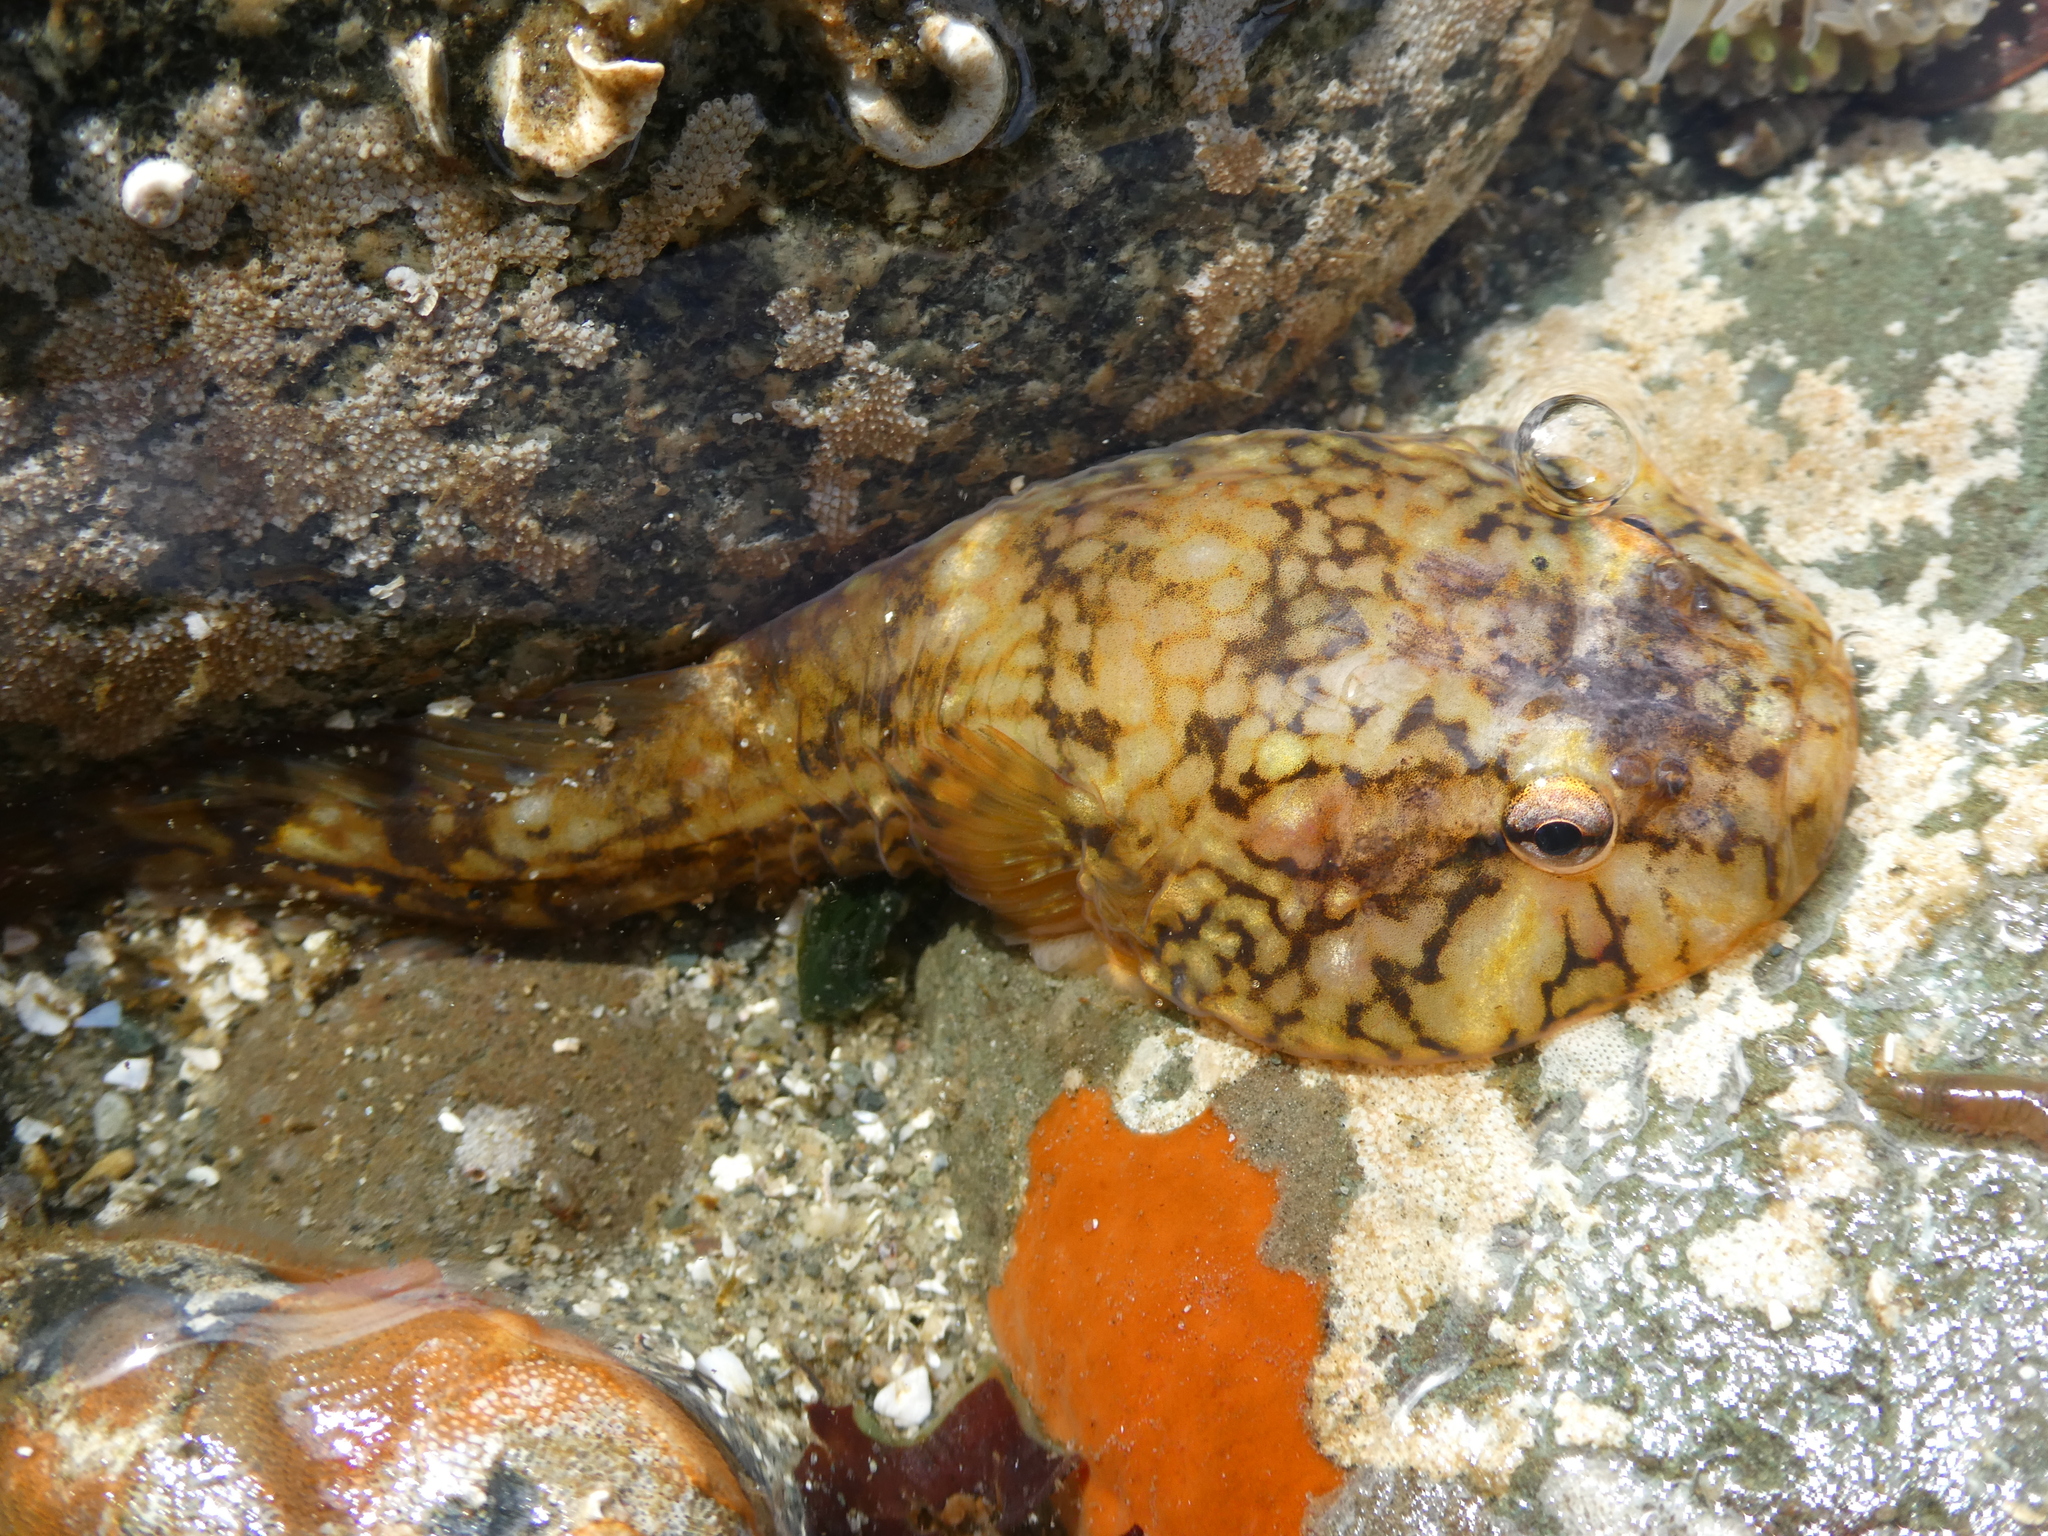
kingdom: Animalia
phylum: Chordata
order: Gobiesociformes
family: Gobiesocidae
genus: Gobiesox
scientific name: Gobiesox maeandricus
